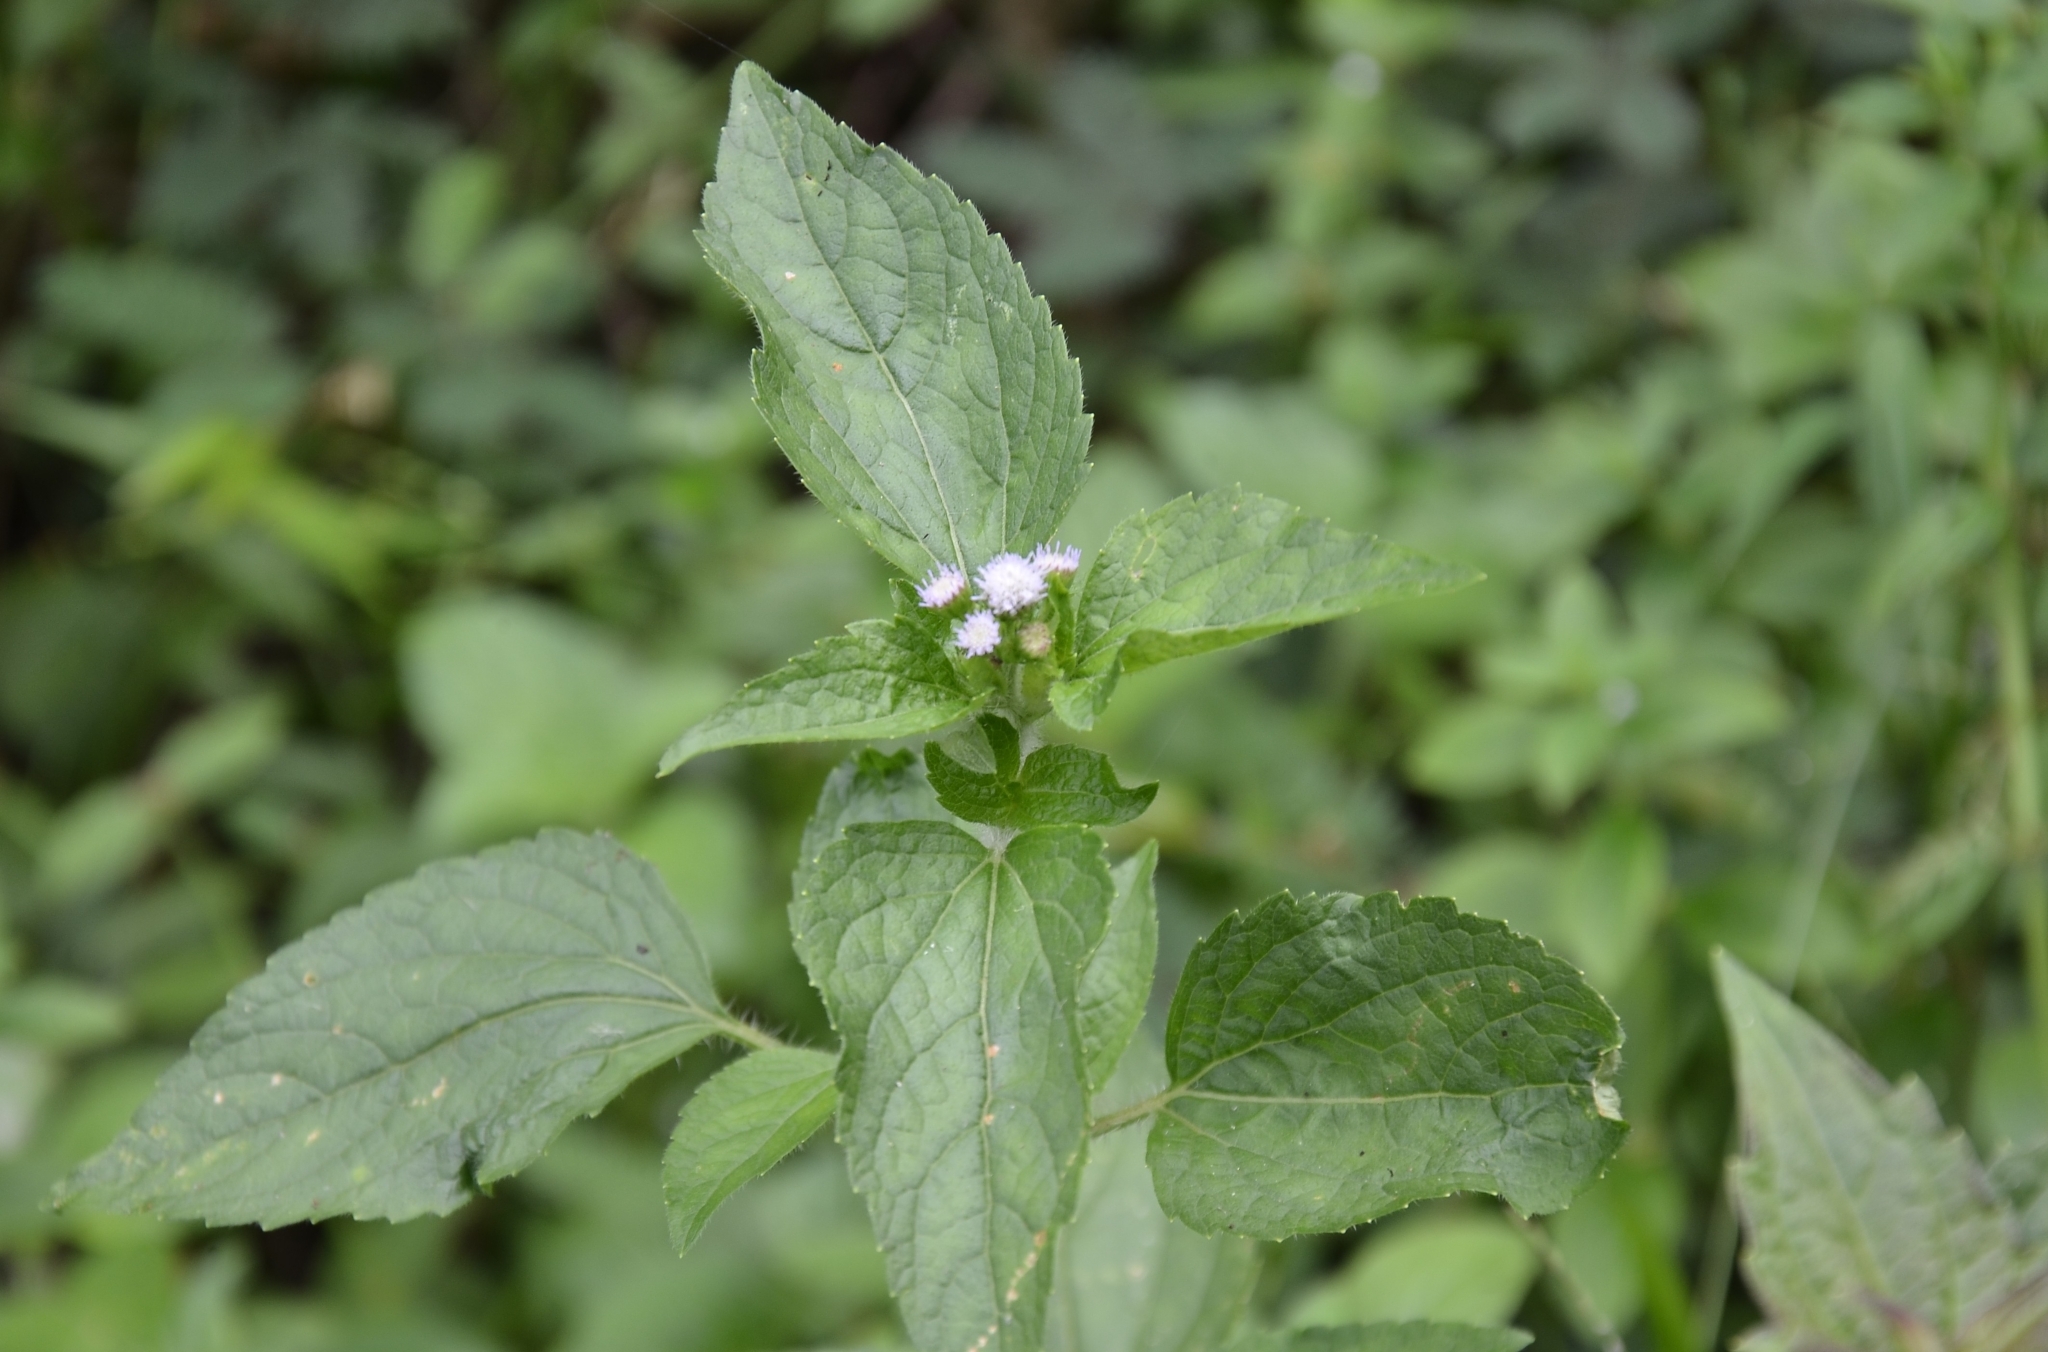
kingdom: Plantae
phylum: Tracheophyta
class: Magnoliopsida
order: Asterales
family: Asteraceae
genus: Ageratum
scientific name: Ageratum conyzoides
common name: Tropical whiteweed
